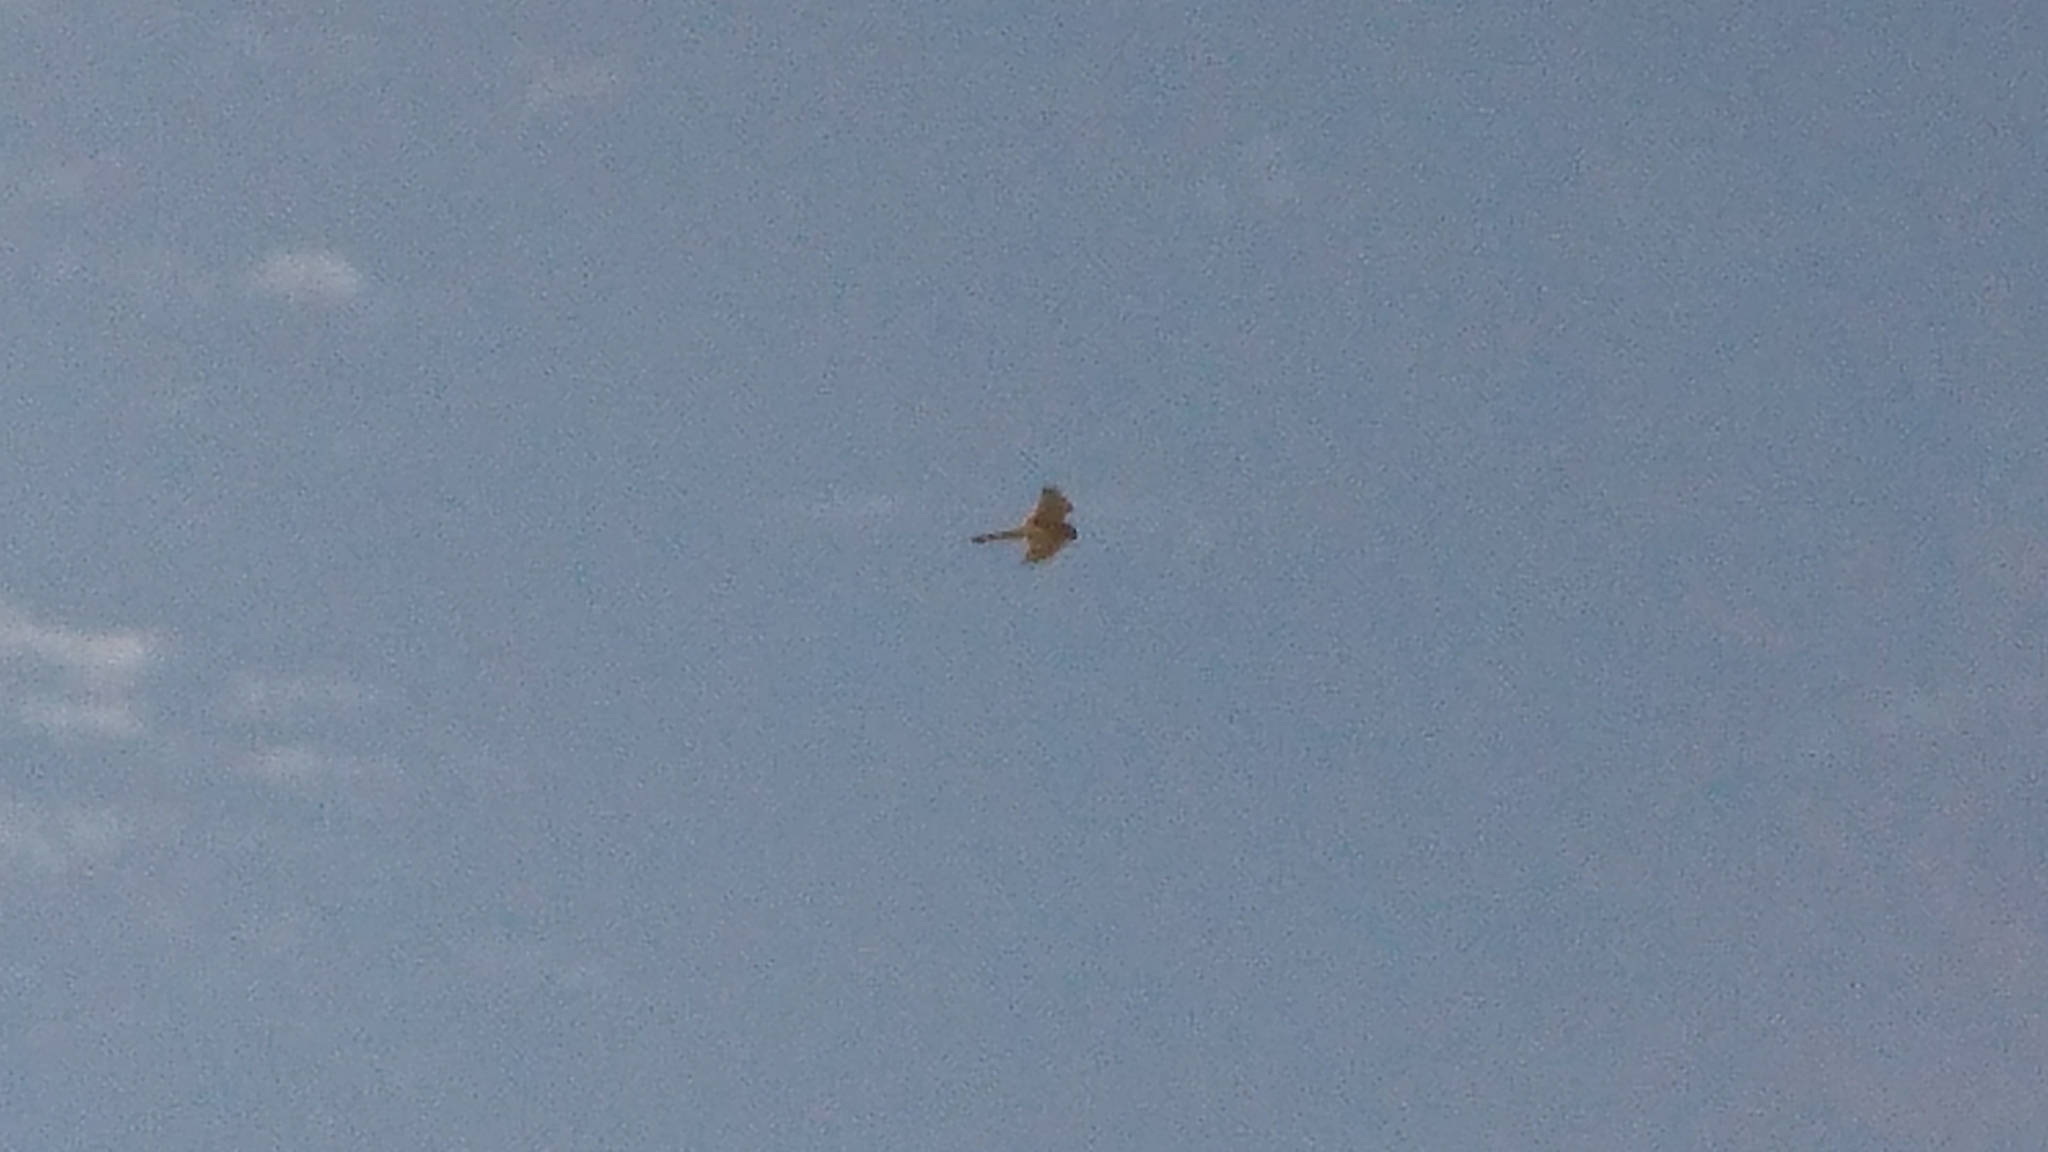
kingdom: Animalia
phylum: Chordata
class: Aves
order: Falconiformes
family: Falconidae
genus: Falco
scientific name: Falco cenchroides
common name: Nankeen kestrel
